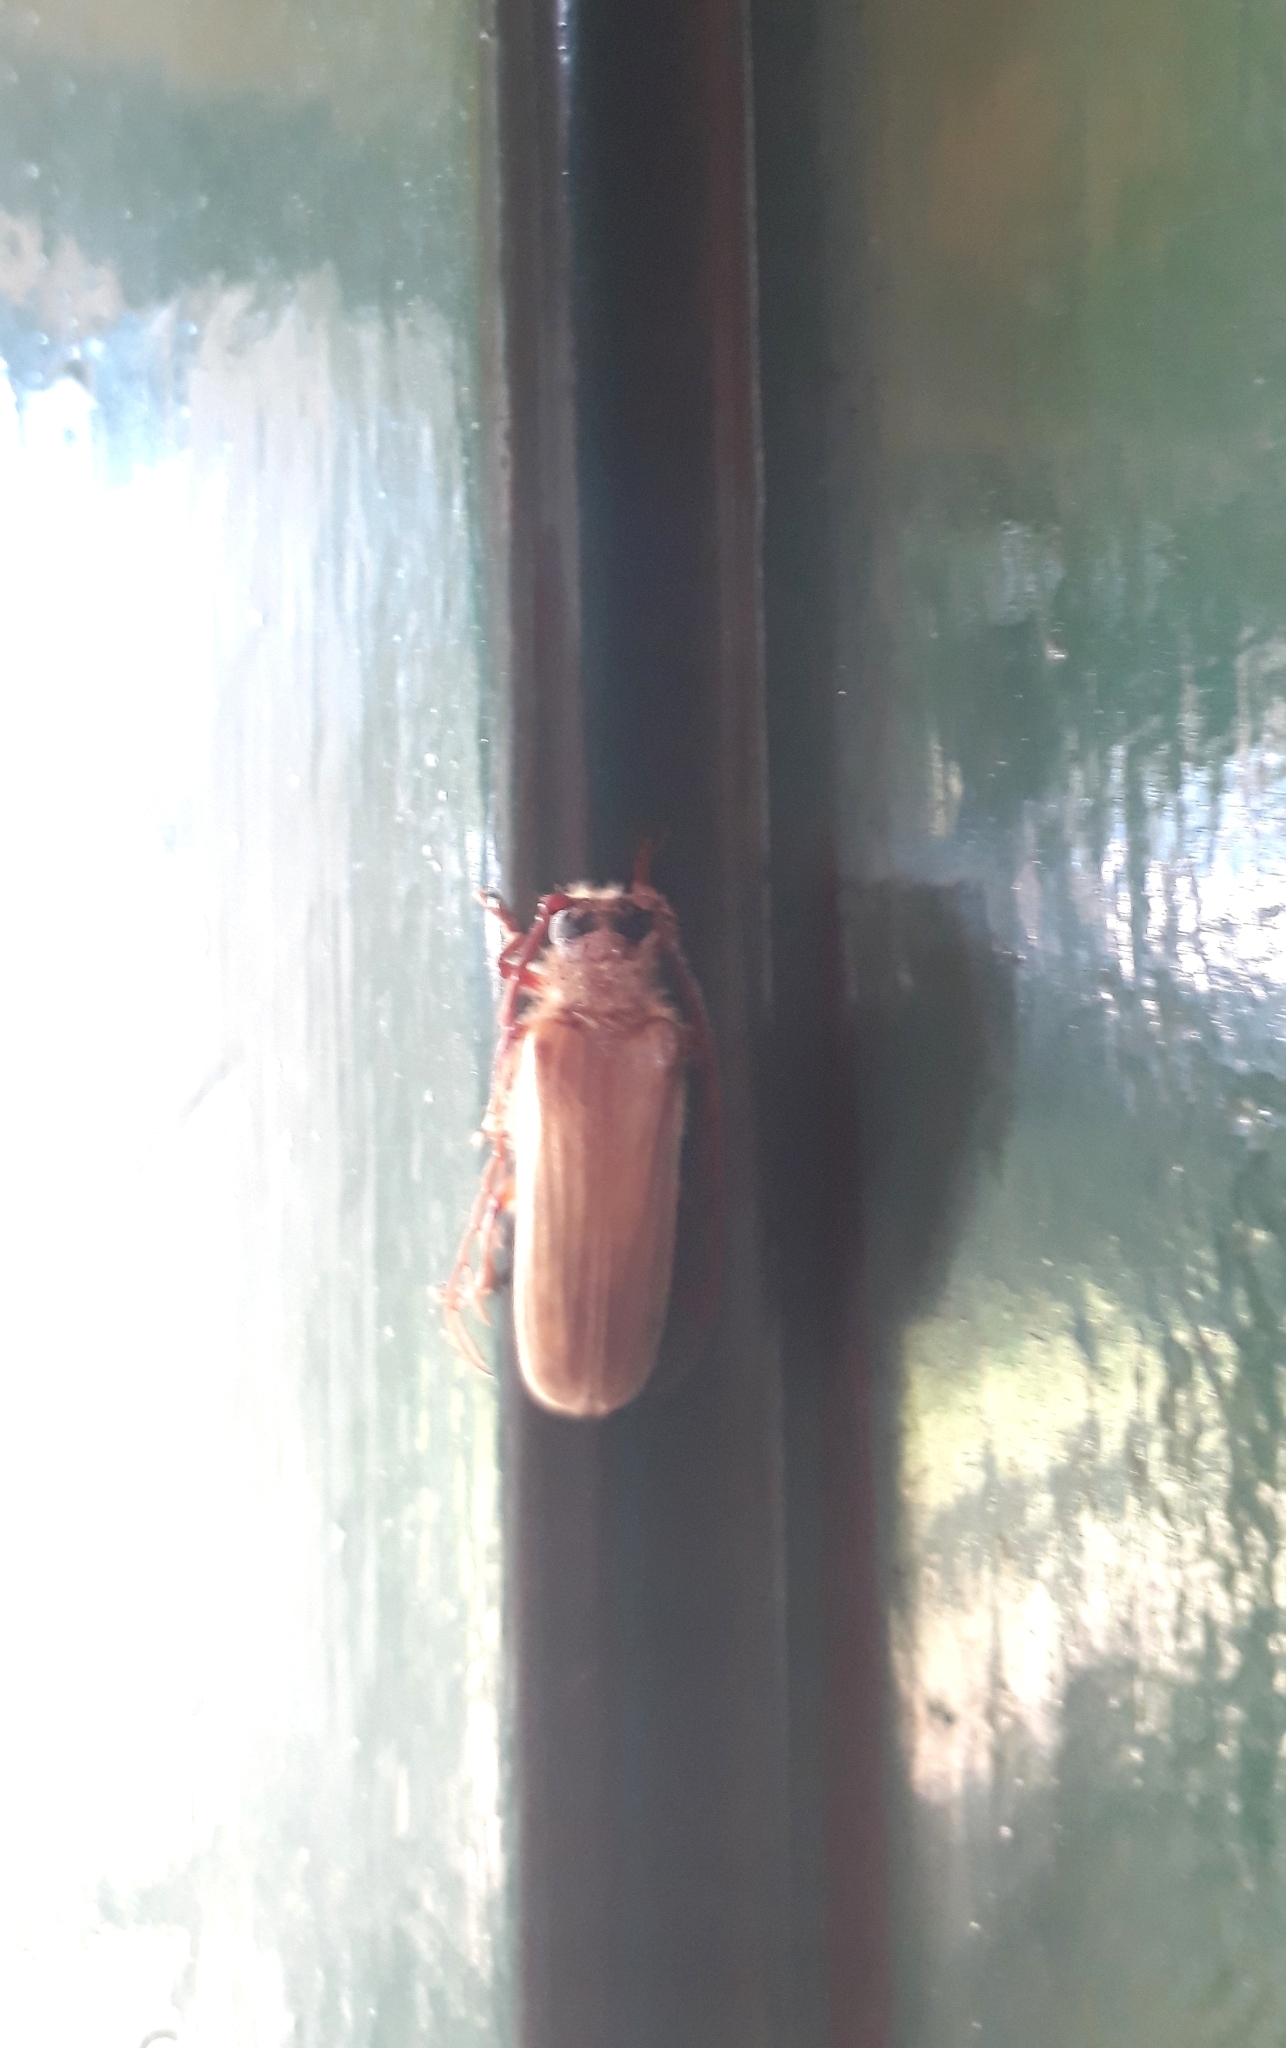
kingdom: Animalia
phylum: Arthropoda
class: Insecta
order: Coleoptera
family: Cerambycidae
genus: Microplophorus
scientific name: Microplophorus penai
